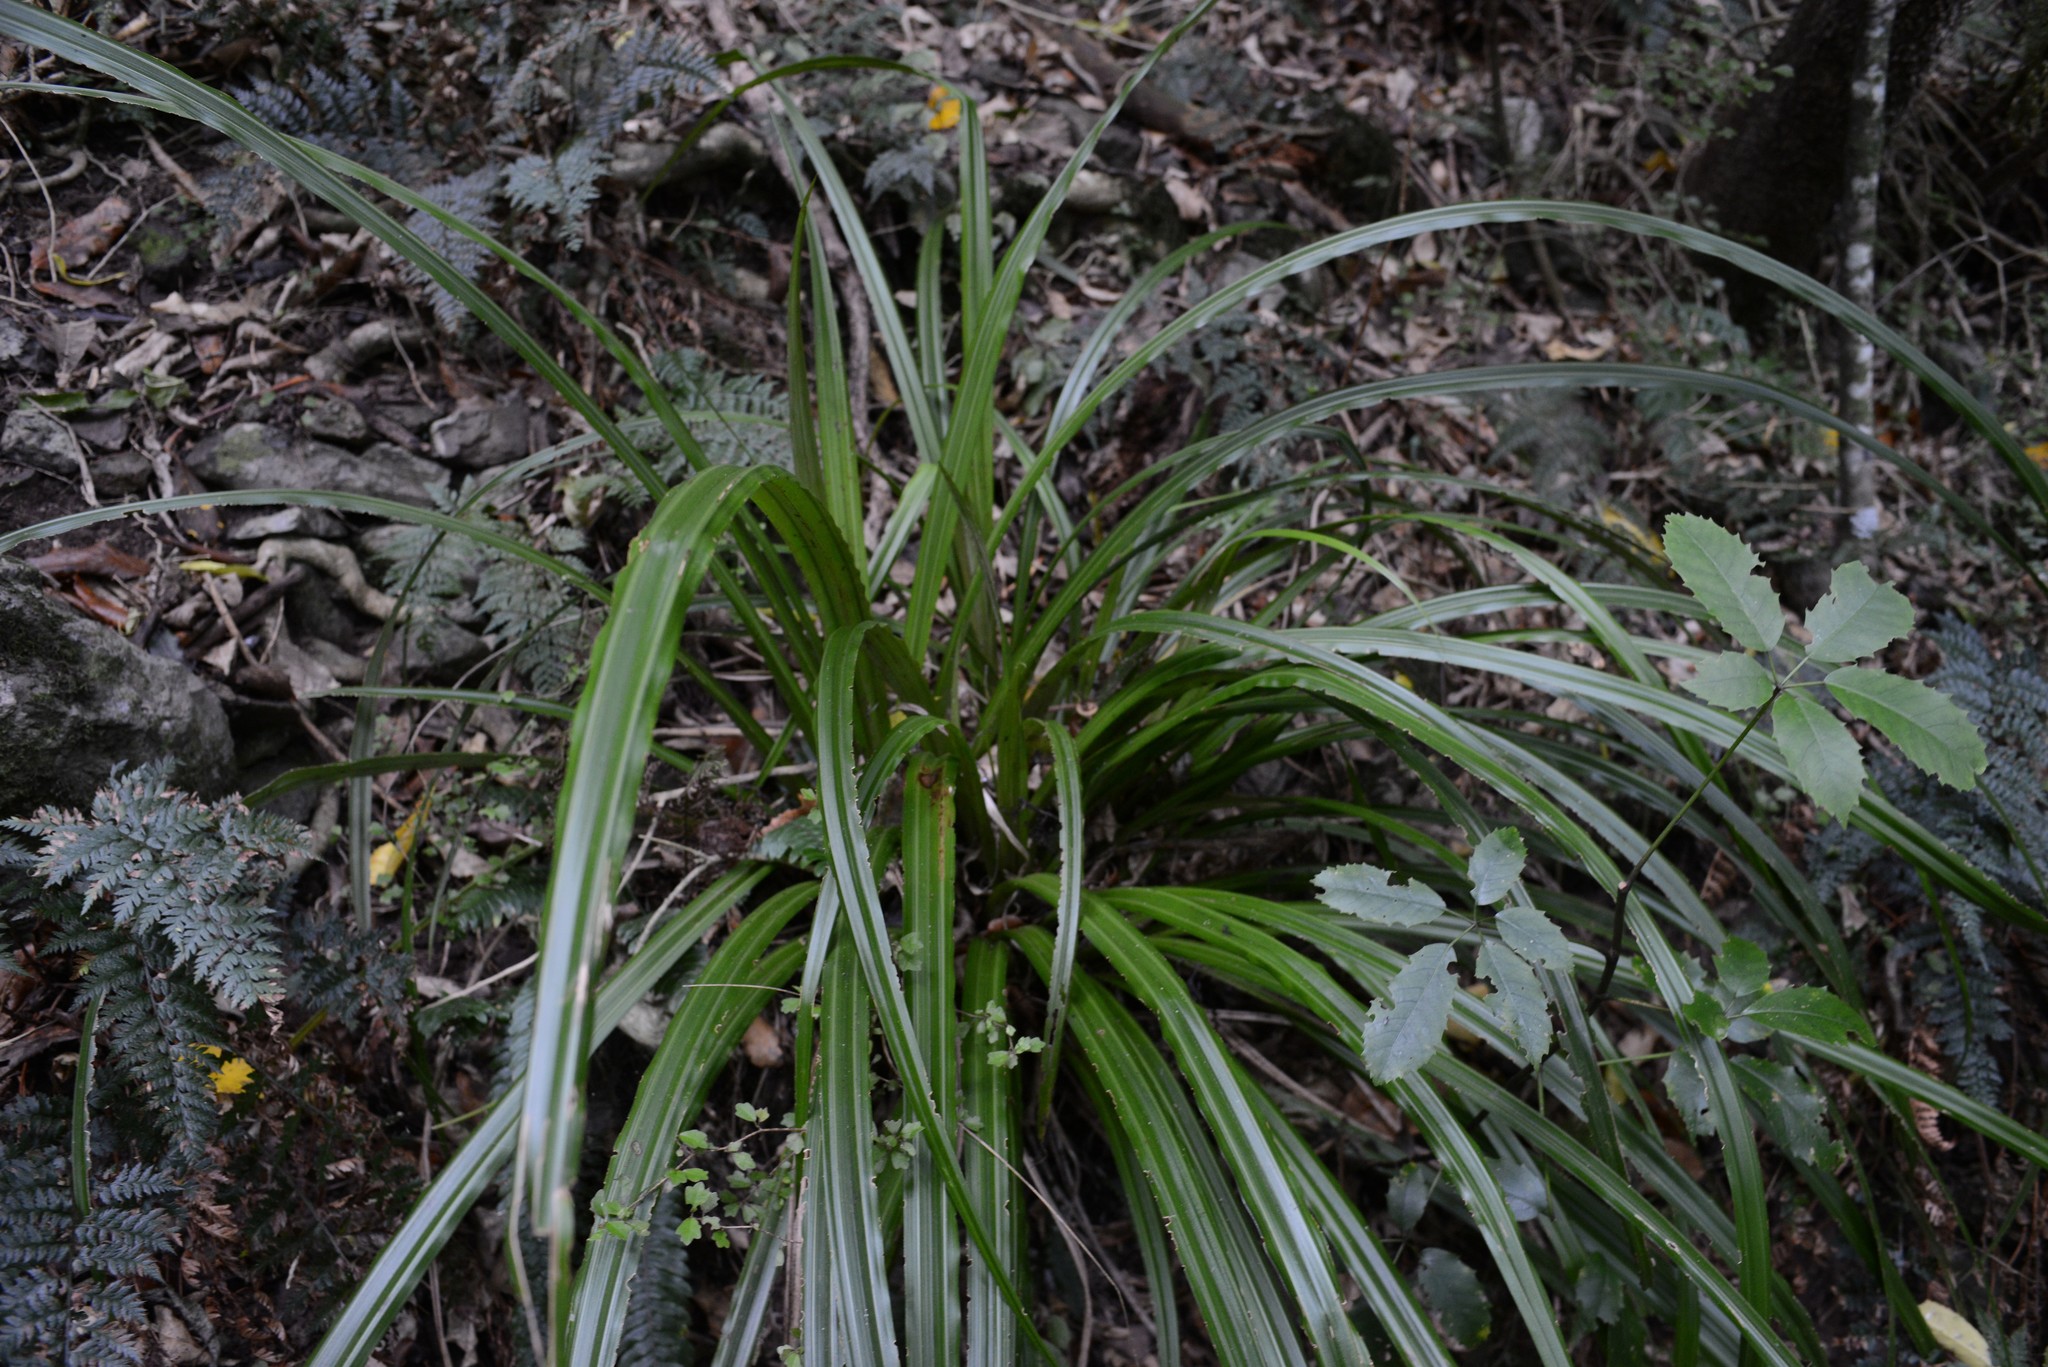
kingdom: Plantae
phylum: Tracheophyta
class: Liliopsida
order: Asparagales
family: Asteliaceae
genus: Astelia
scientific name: Astelia fragrans
